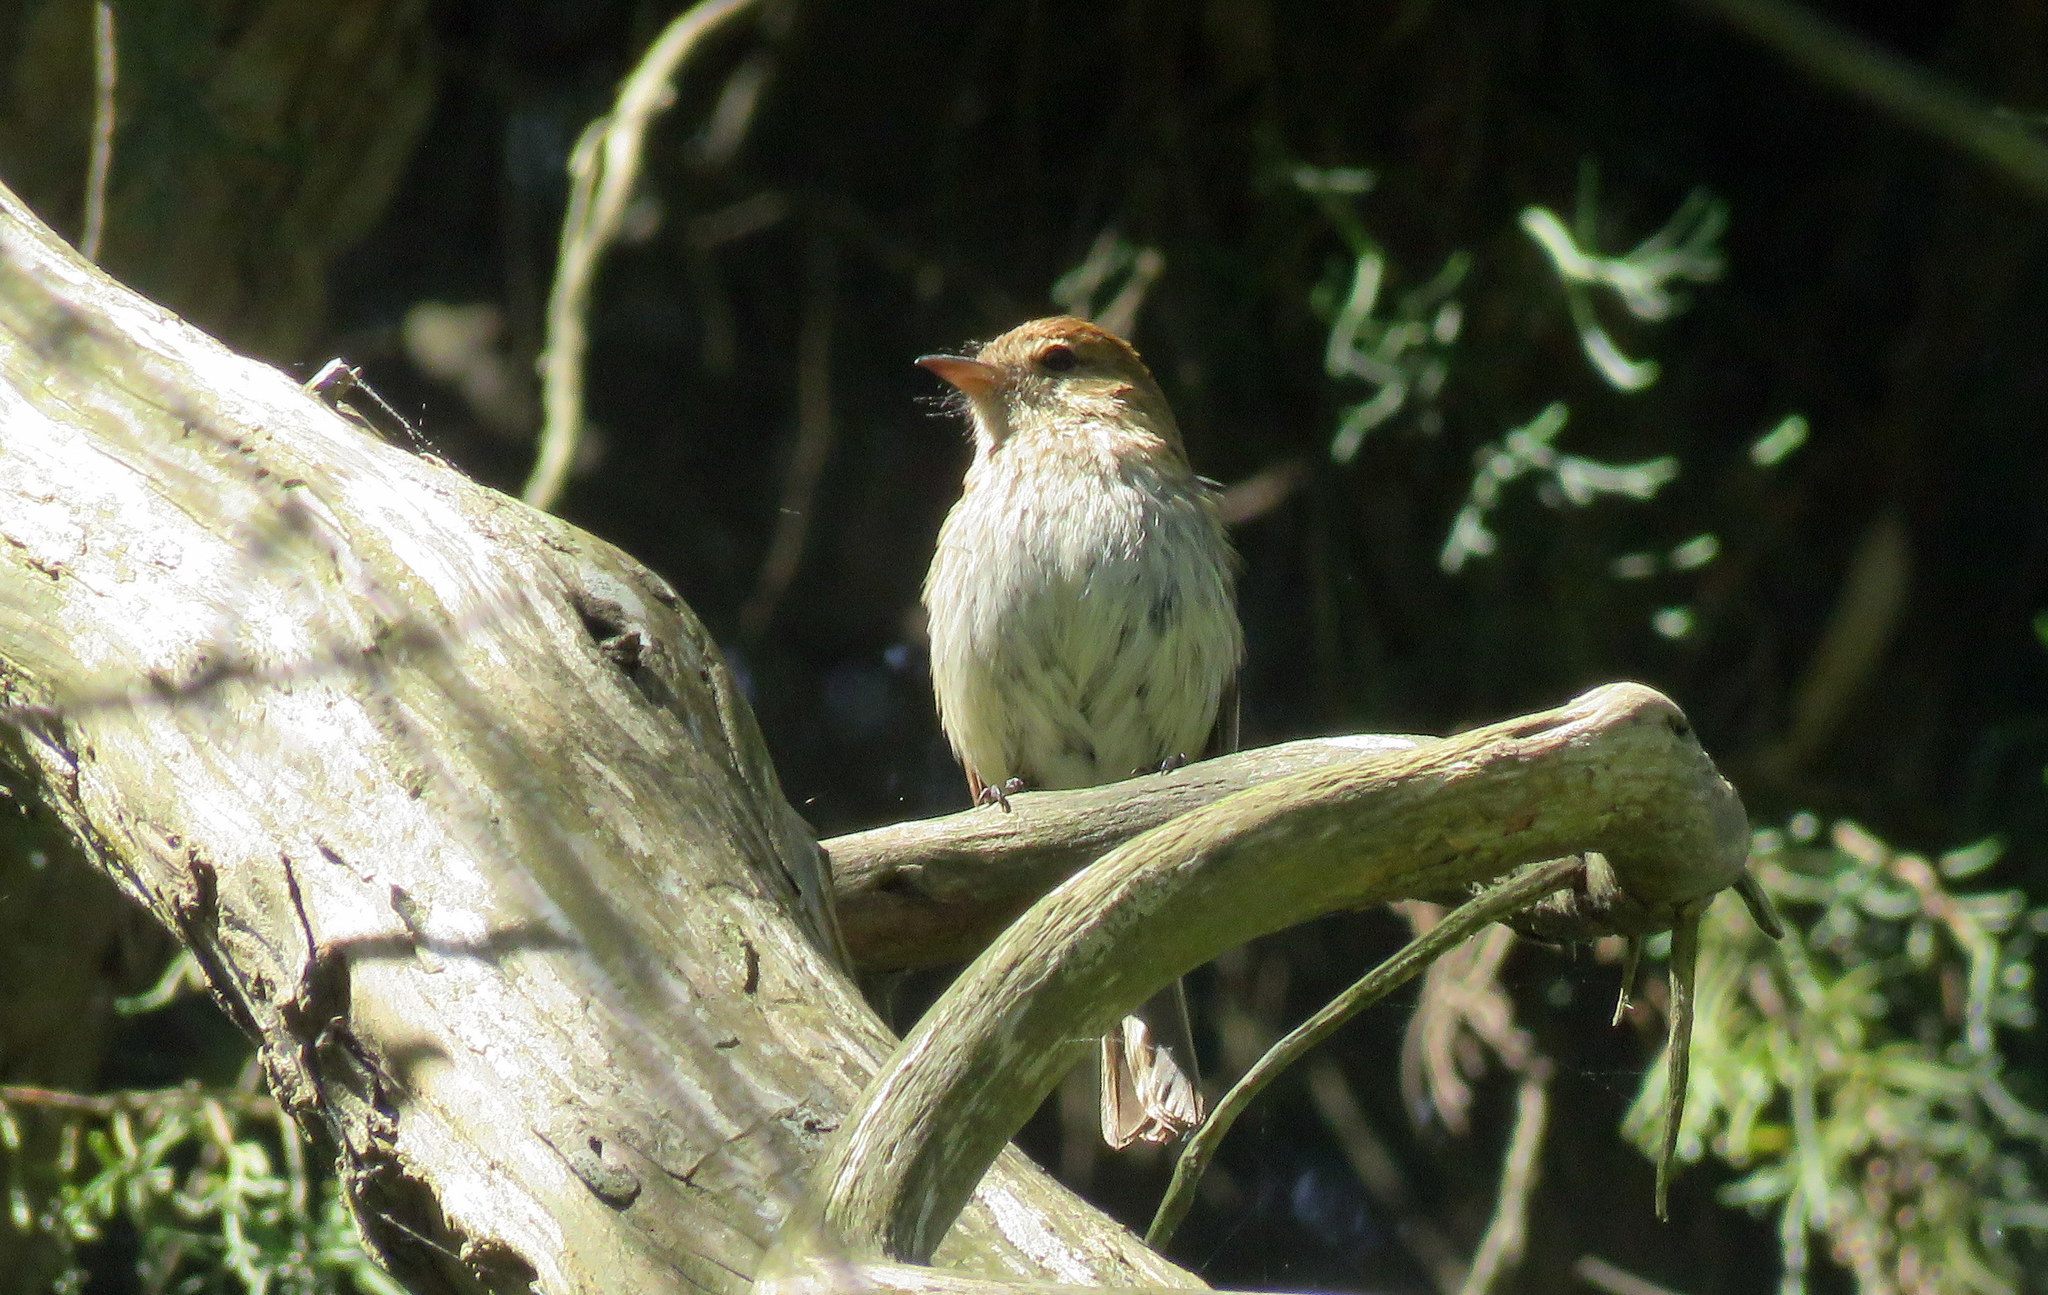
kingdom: Animalia
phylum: Chordata
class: Aves
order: Passeriformes
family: Tyrannidae
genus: Myiophobus
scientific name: Myiophobus fasciatus
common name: Bran-colored flycatcher
